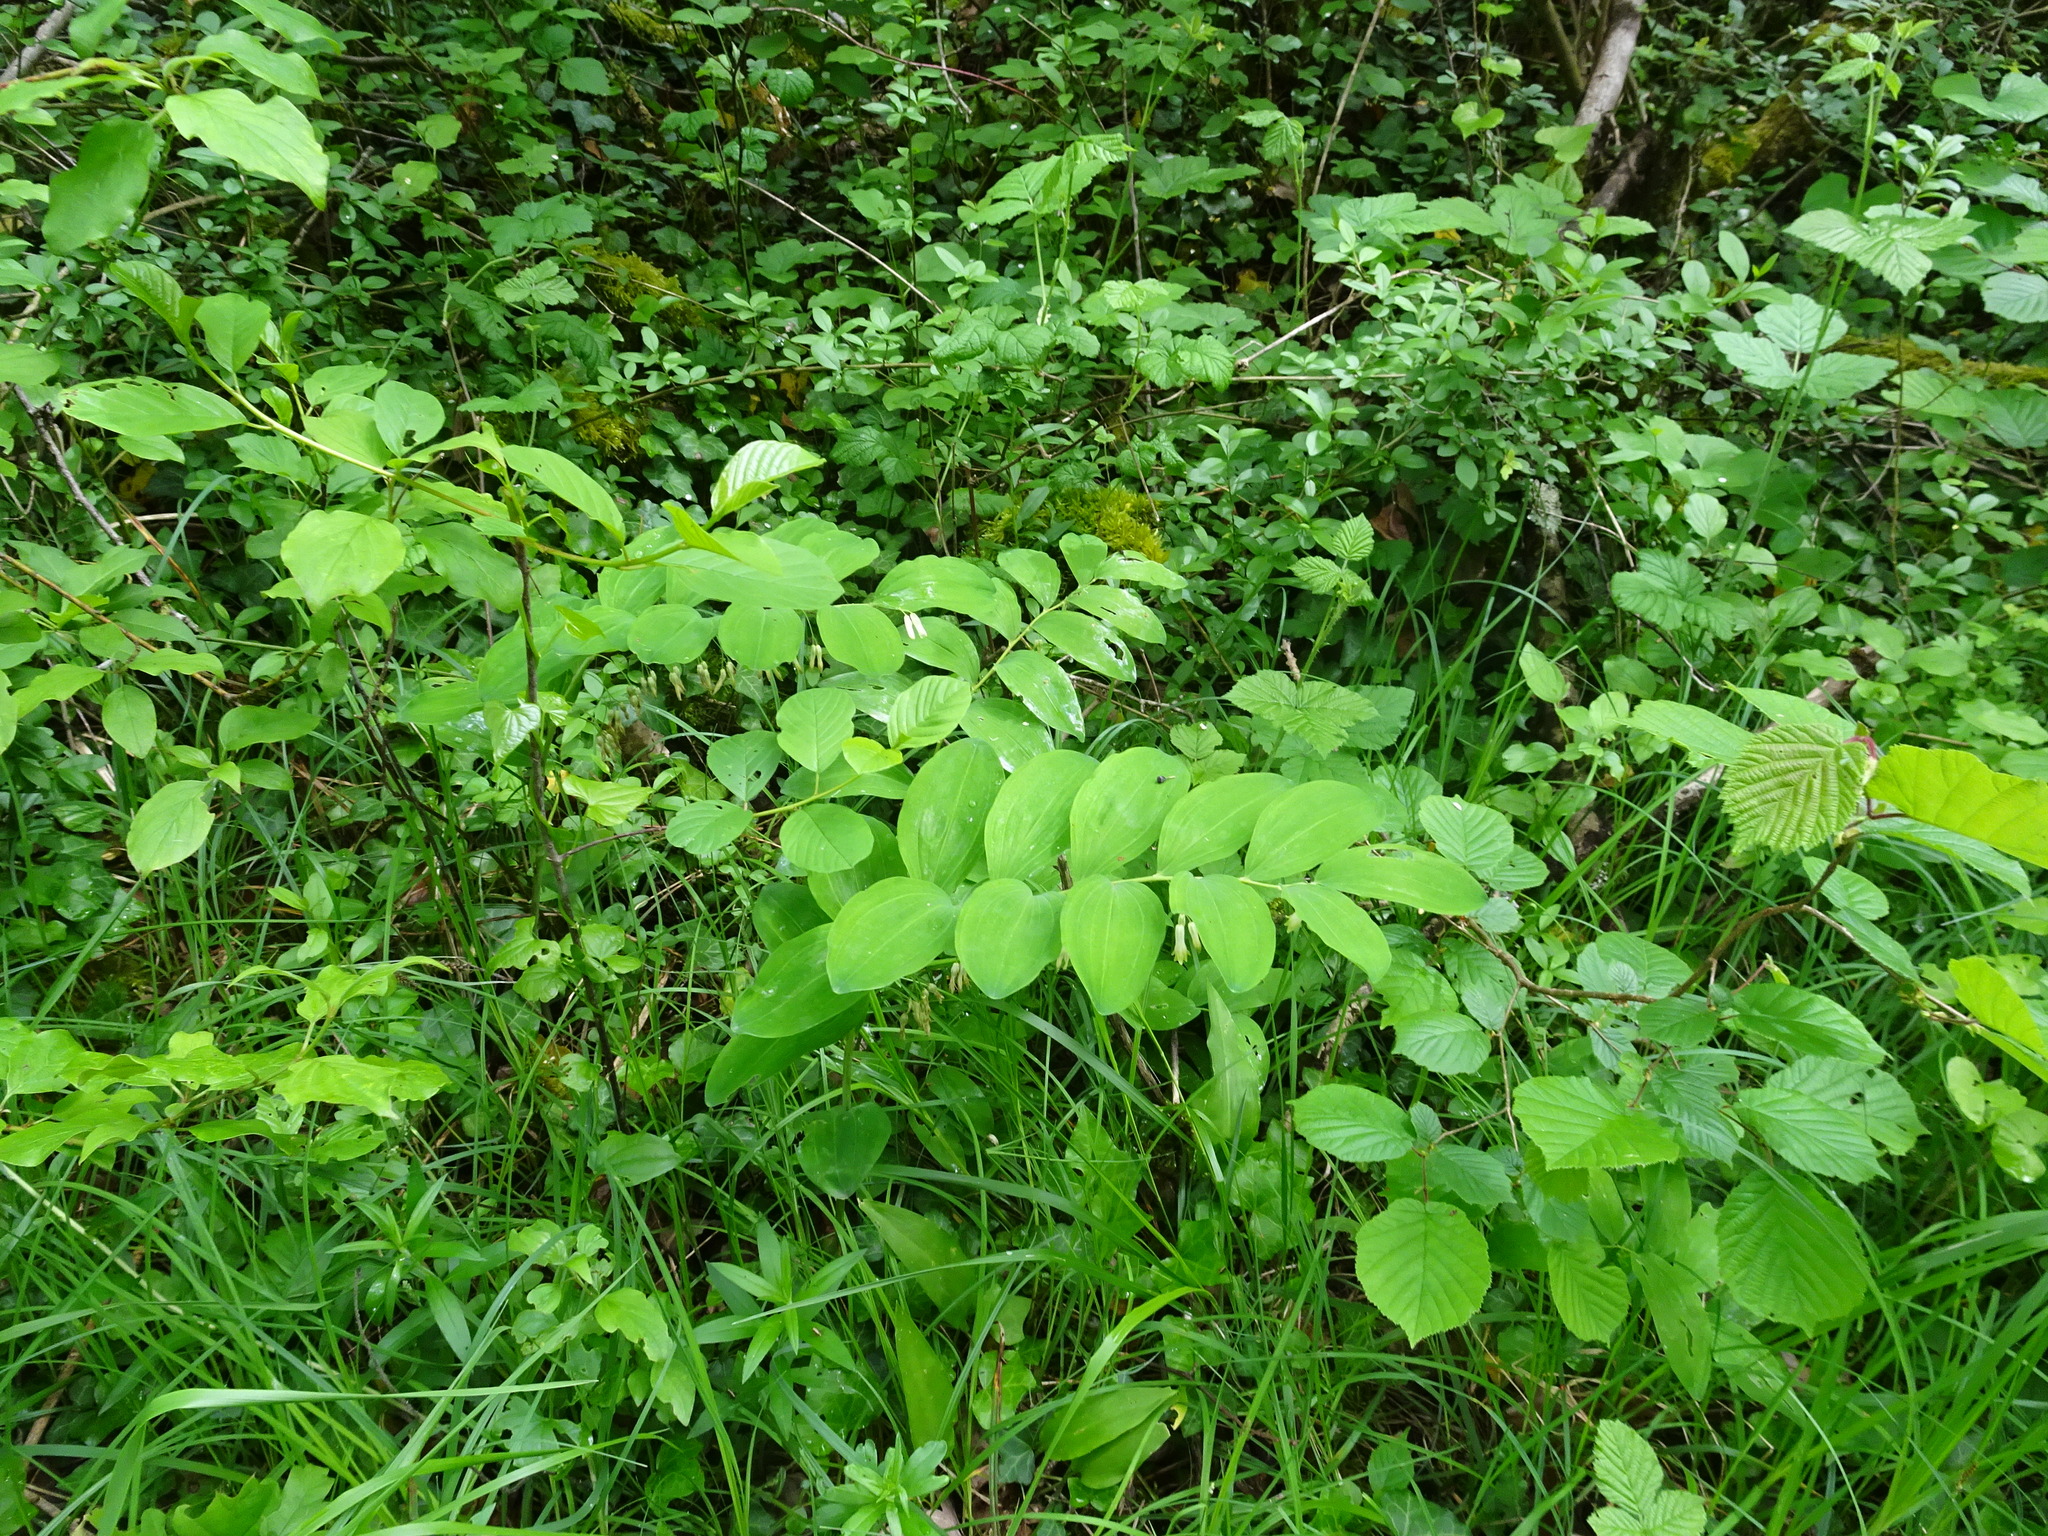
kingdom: Plantae
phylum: Tracheophyta
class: Liliopsida
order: Asparagales
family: Asparagaceae
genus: Polygonatum
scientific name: Polygonatum multiflorum
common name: Solomon's-seal
